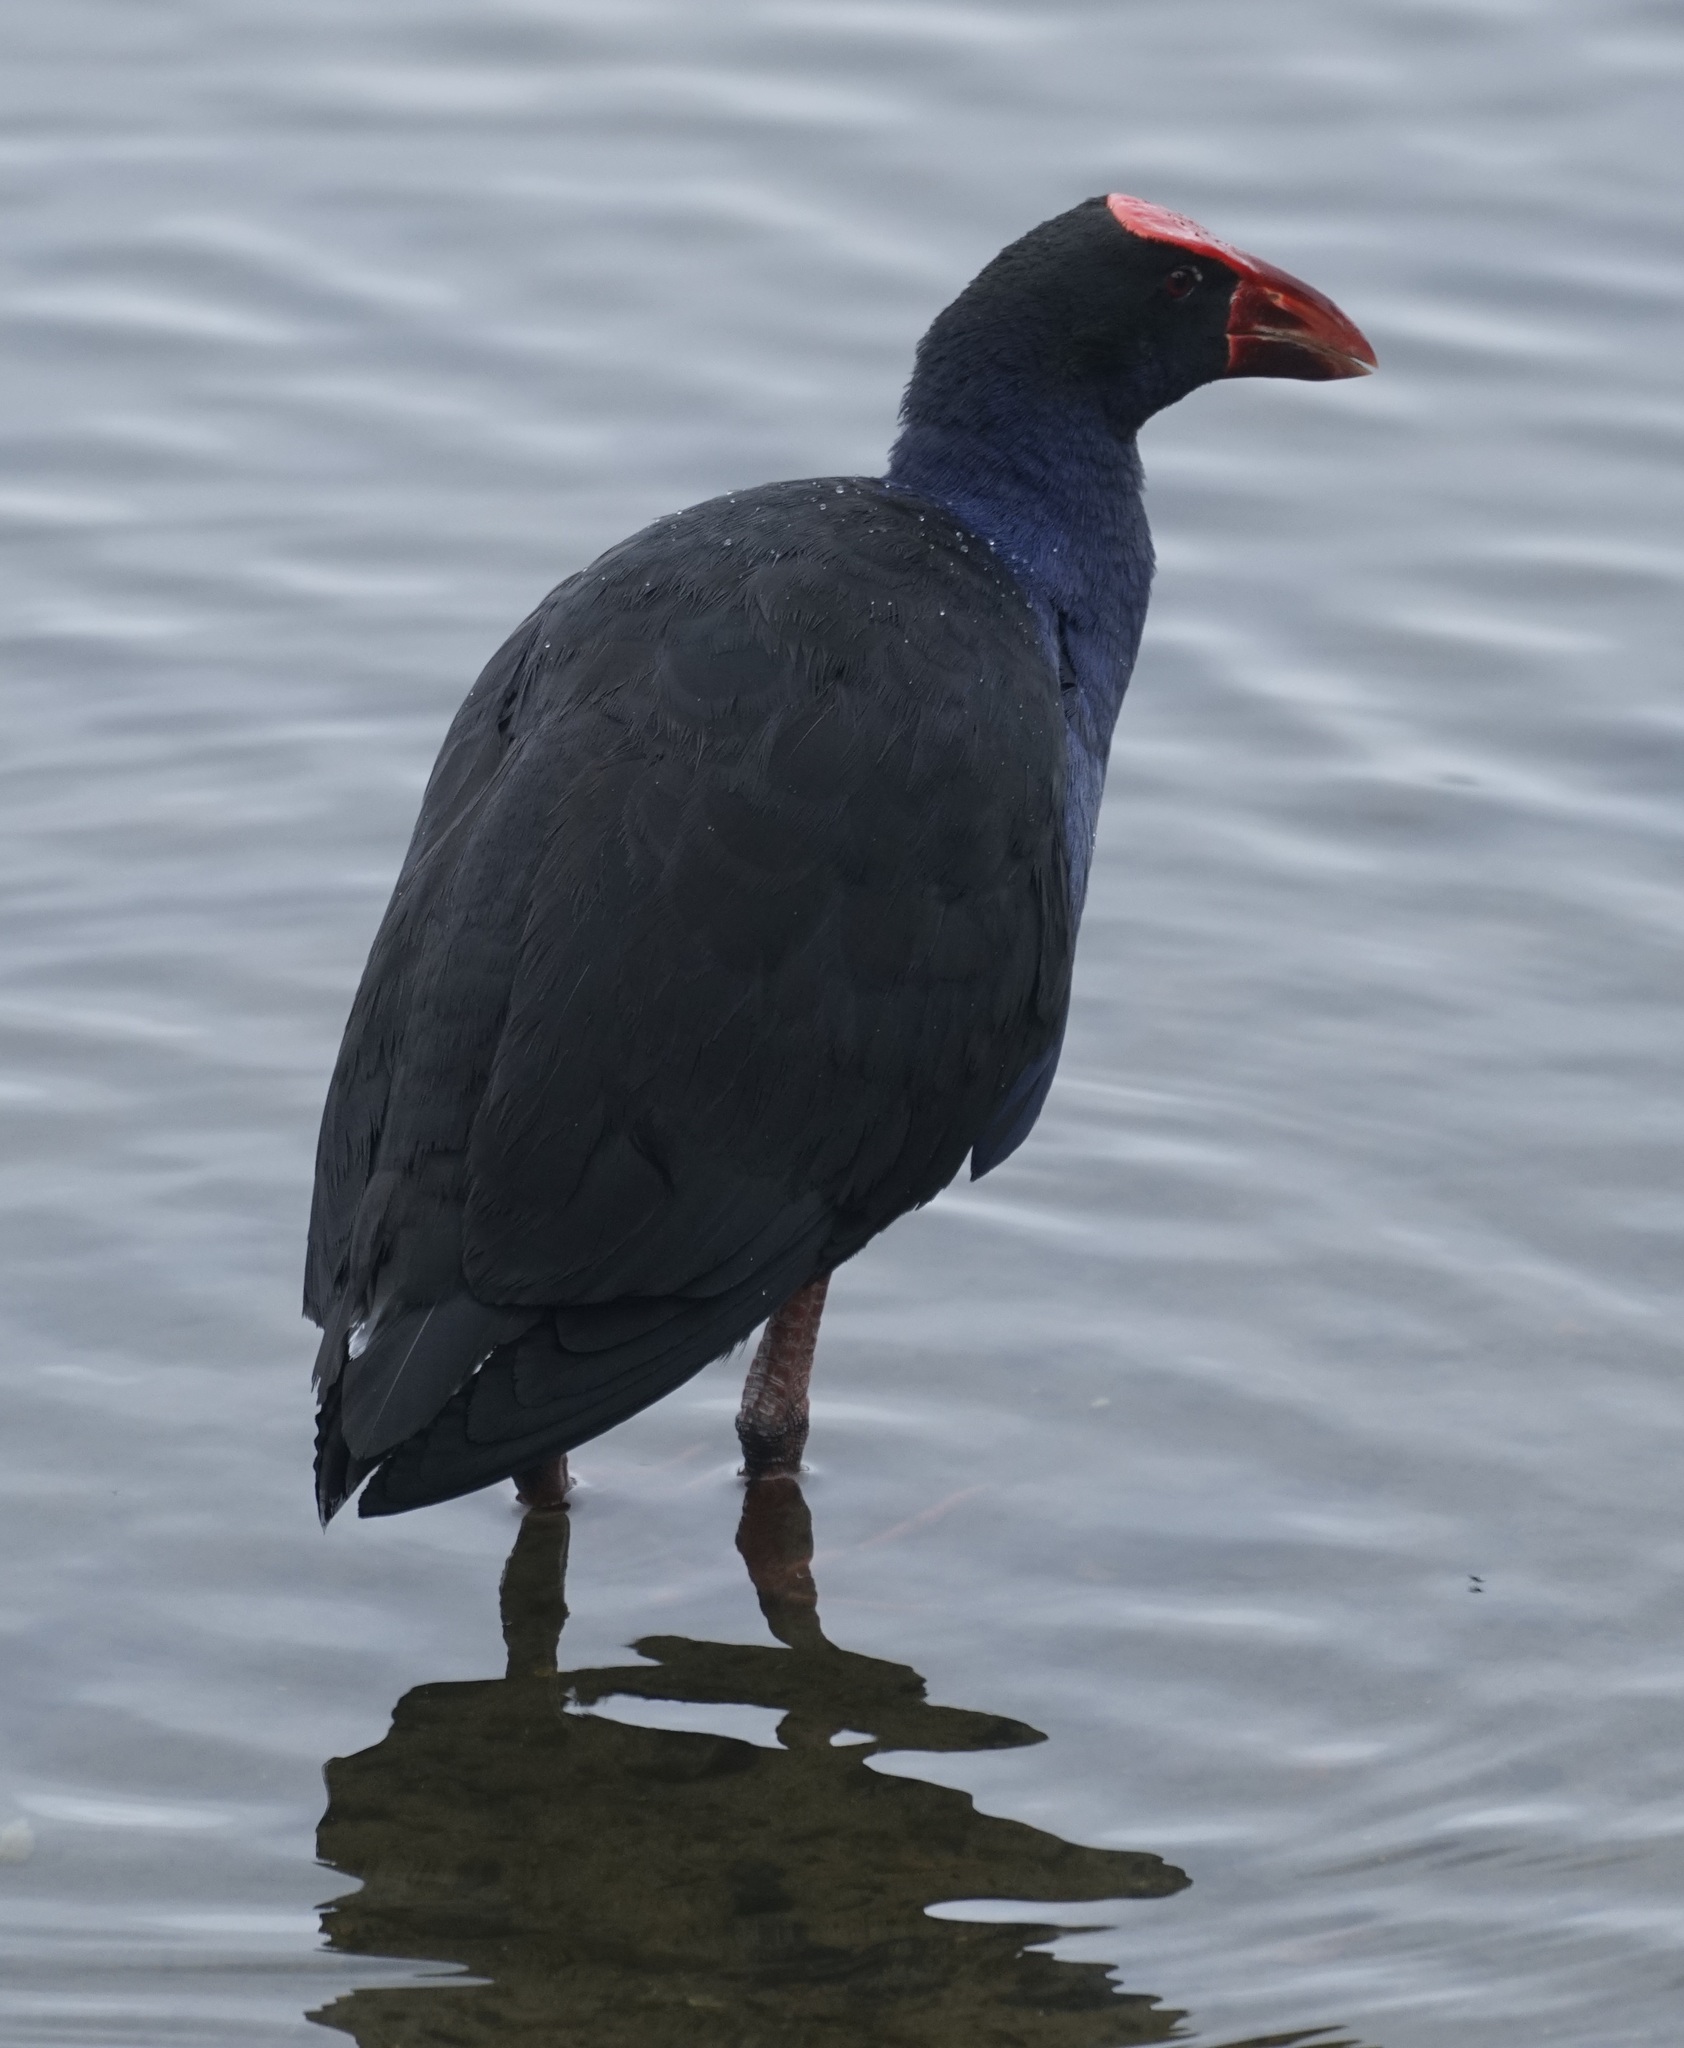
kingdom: Animalia
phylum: Chordata
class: Aves
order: Gruiformes
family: Rallidae
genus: Porphyrio
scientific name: Porphyrio melanotus
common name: Australasian swamphen
